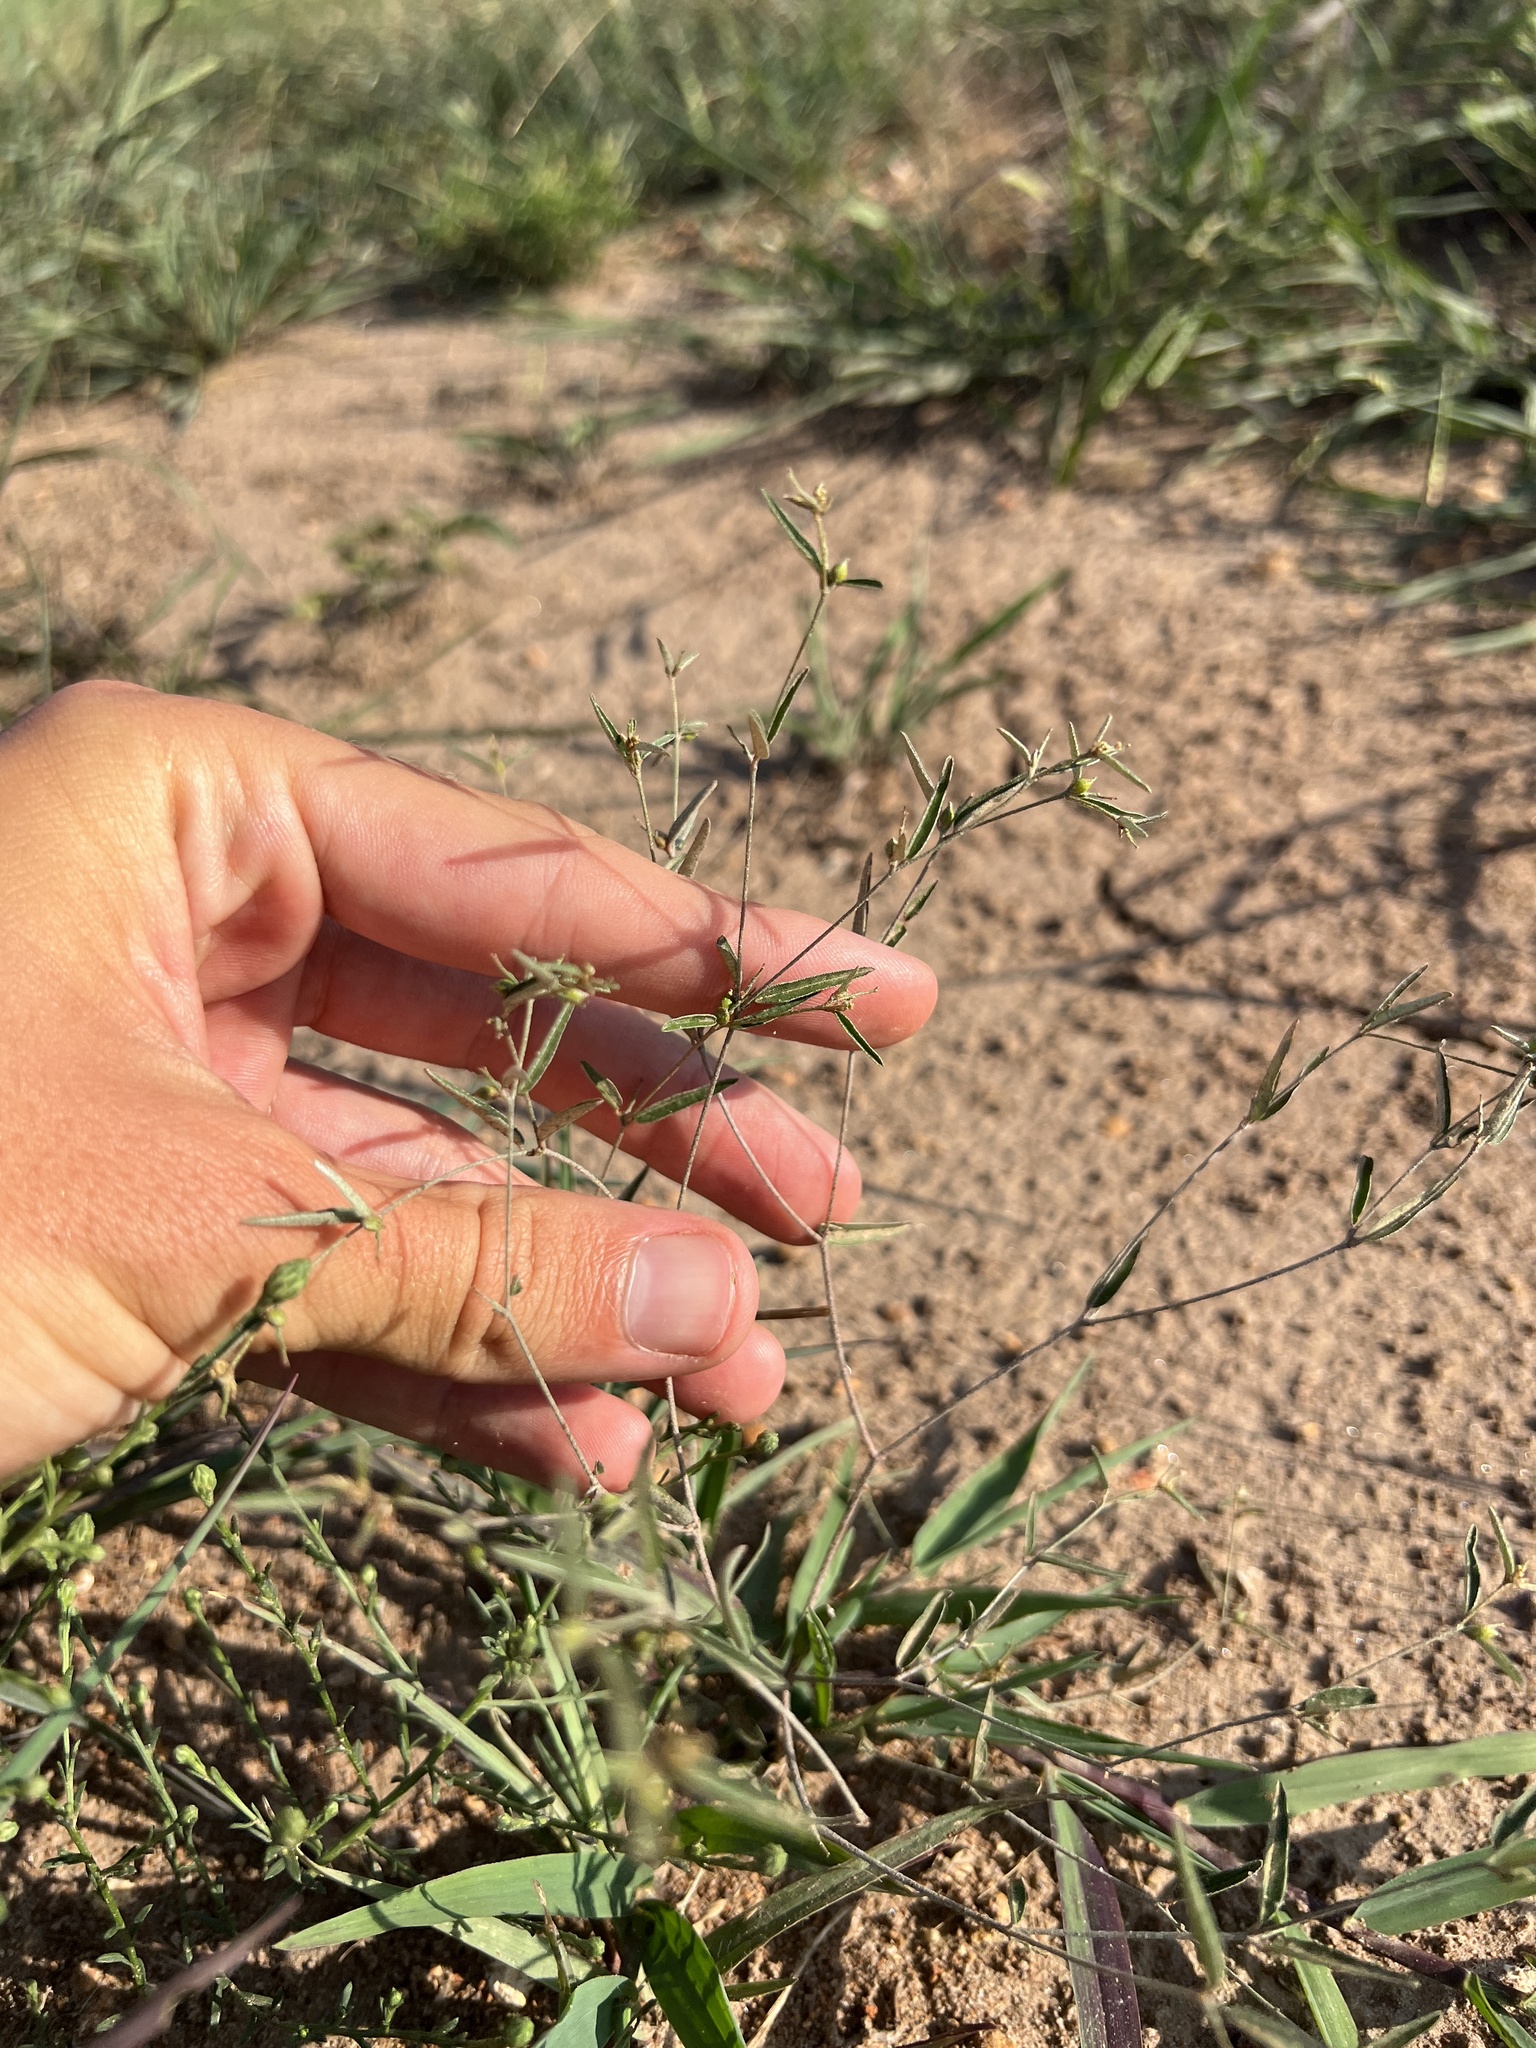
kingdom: Plantae
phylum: Tracheophyta
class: Magnoliopsida
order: Malpighiales
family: Euphorbiaceae
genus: Croton
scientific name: Croton michauxii
